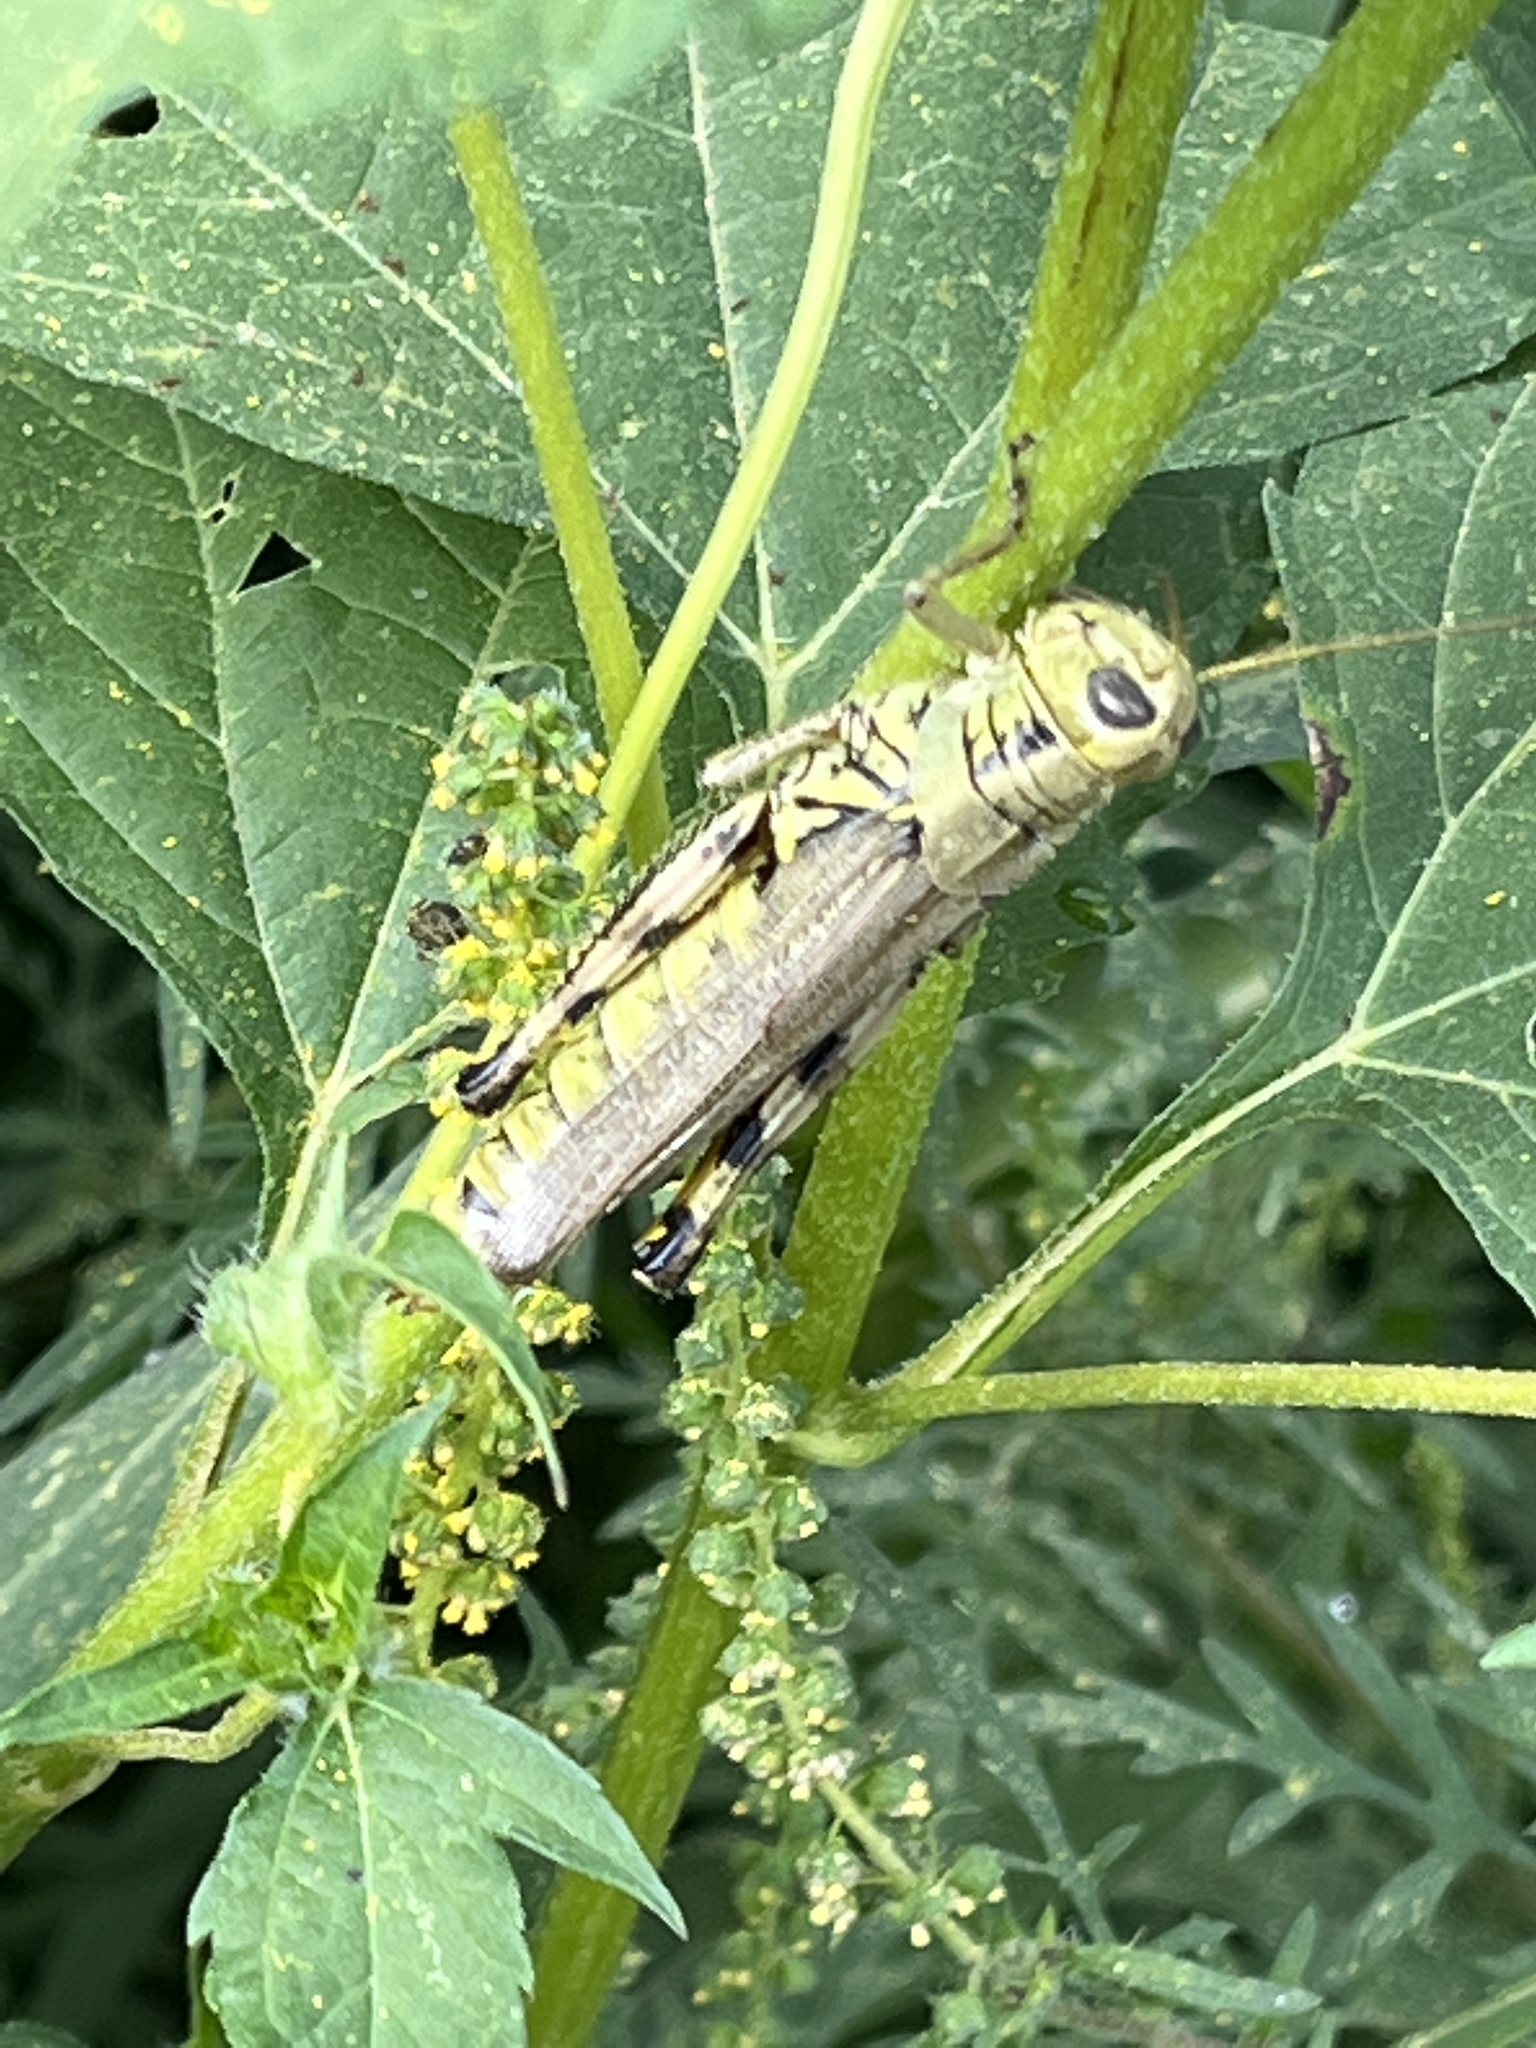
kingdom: Animalia
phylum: Arthropoda
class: Insecta
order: Orthoptera
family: Acrididae
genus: Melanoplus
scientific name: Melanoplus differentialis
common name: Differential grasshopper
